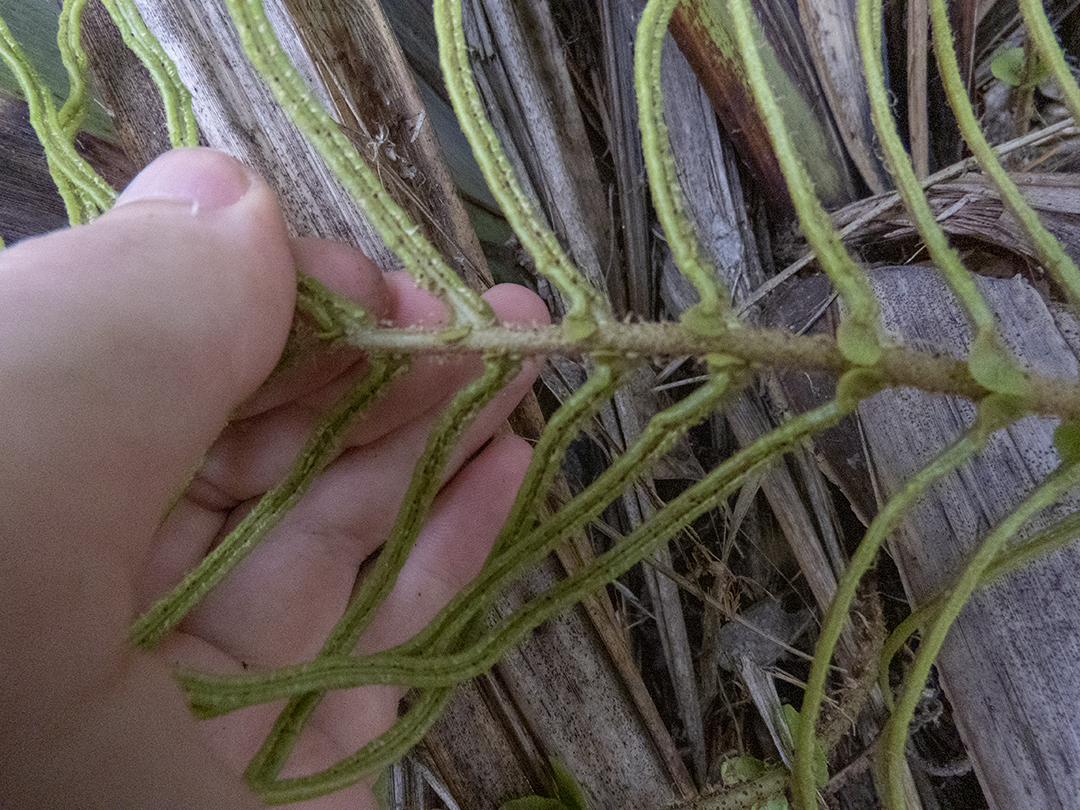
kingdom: Plantae
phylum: Tracheophyta
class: Polypodiopsida
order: Polypodiales
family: Blechnaceae
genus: Parablechnum
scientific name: Parablechnum novae-zelandiae
